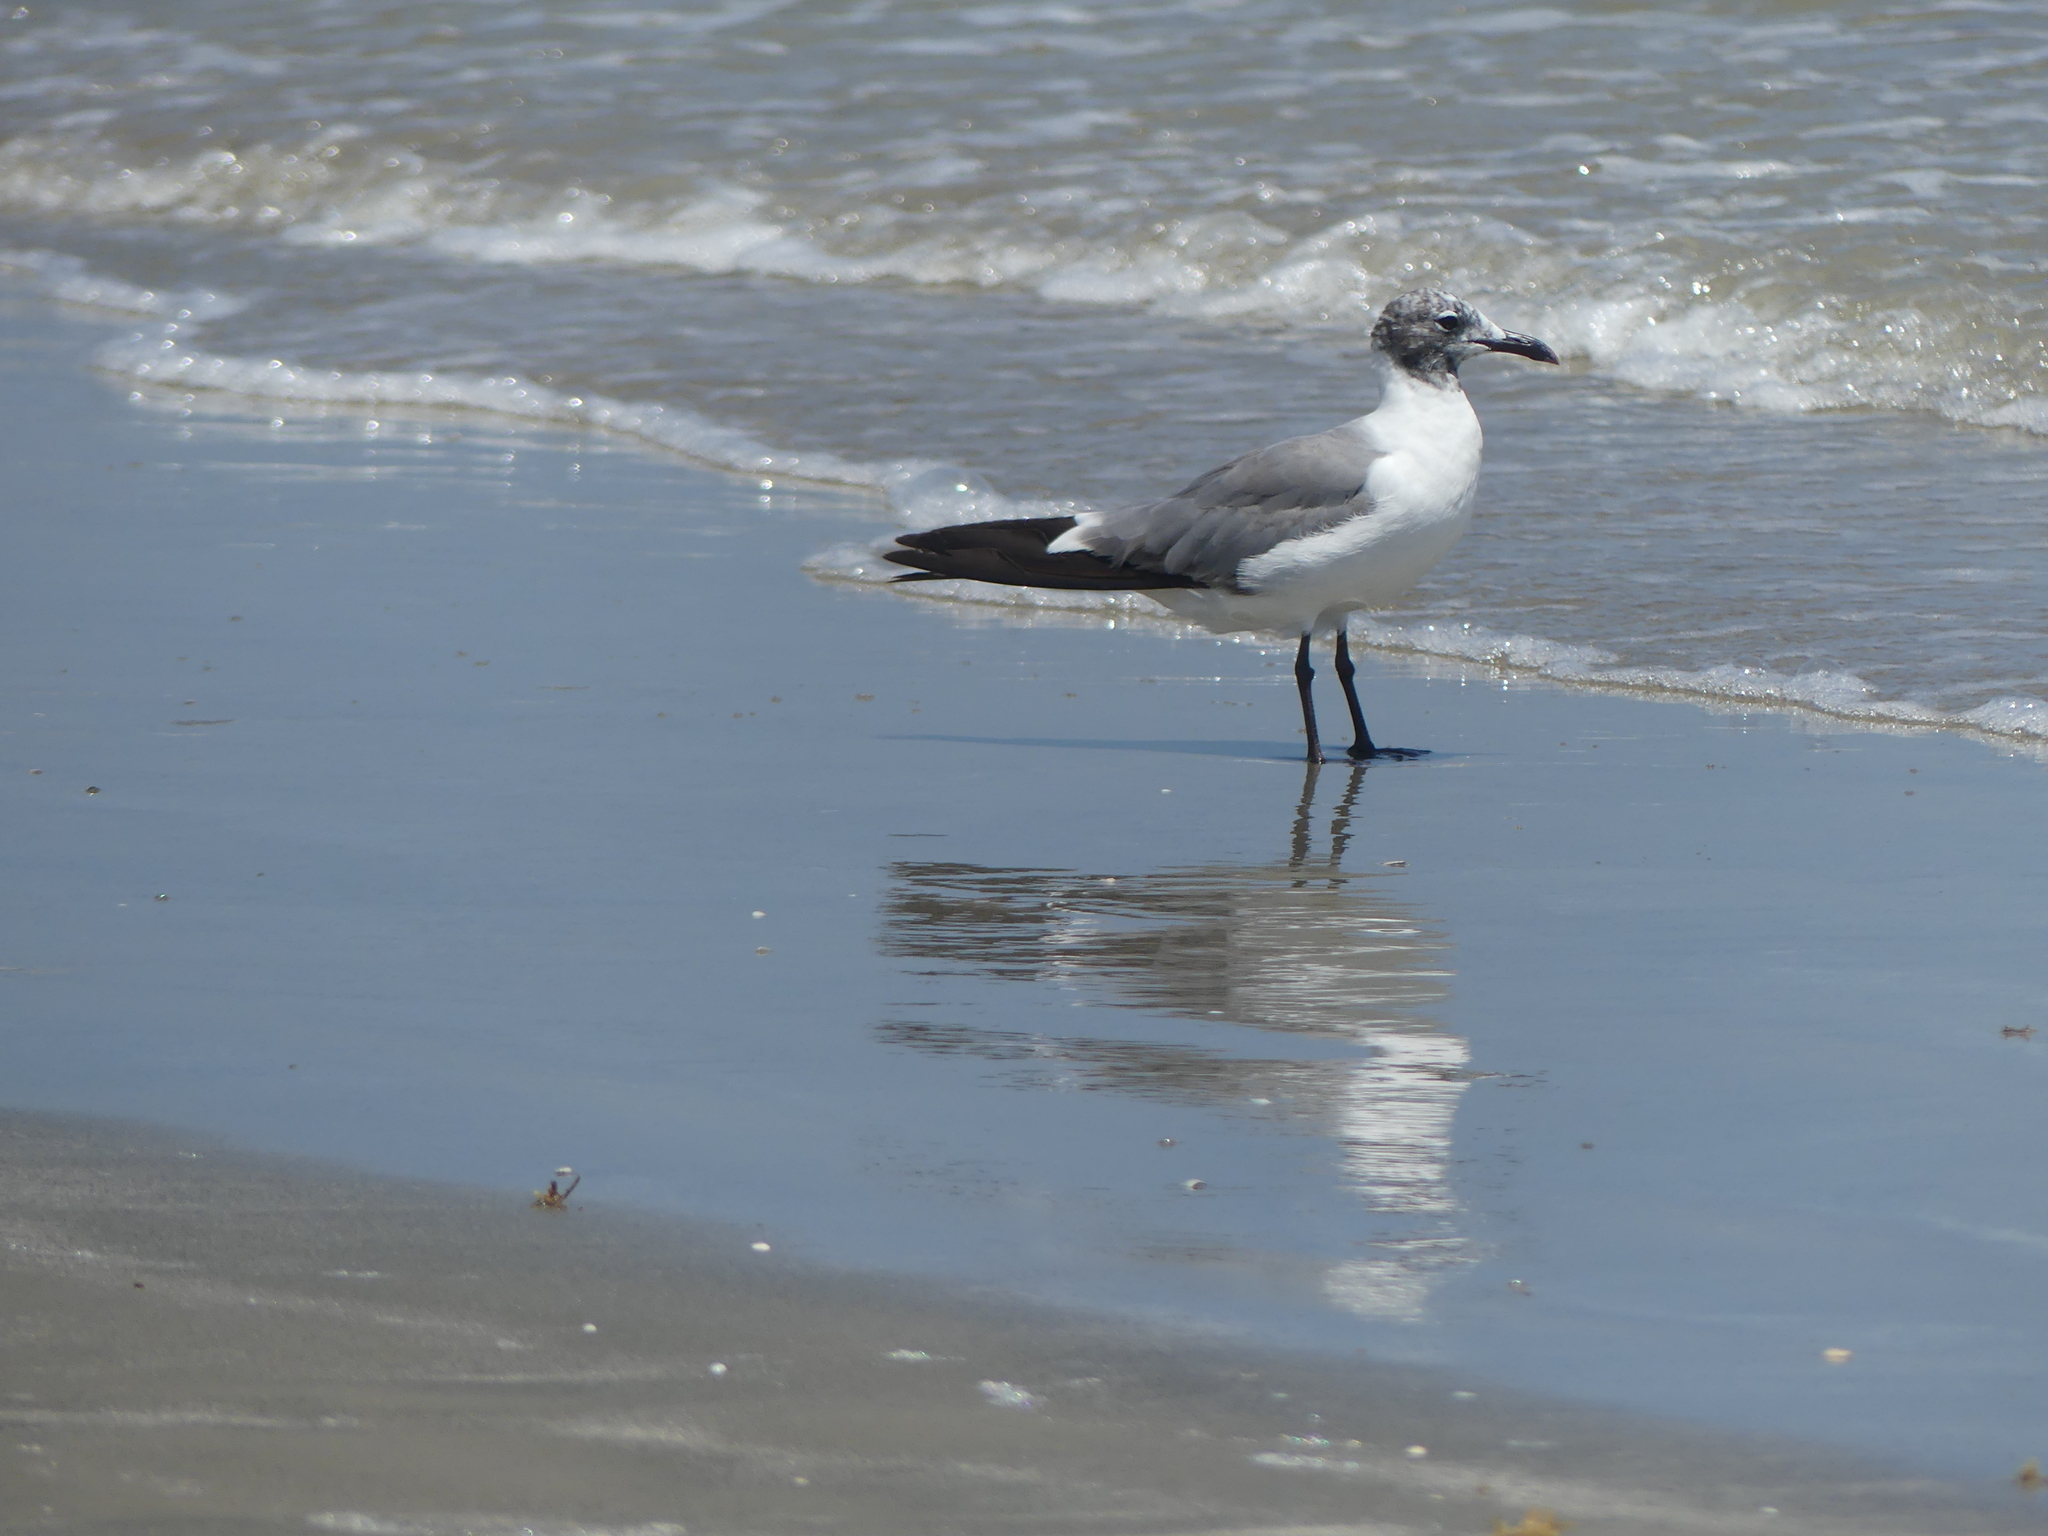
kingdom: Animalia
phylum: Chordata
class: Aves
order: Charadriiformes
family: Laridae
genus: Leucophaeus
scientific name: Leucophaeus atricilla
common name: Laughing gull
